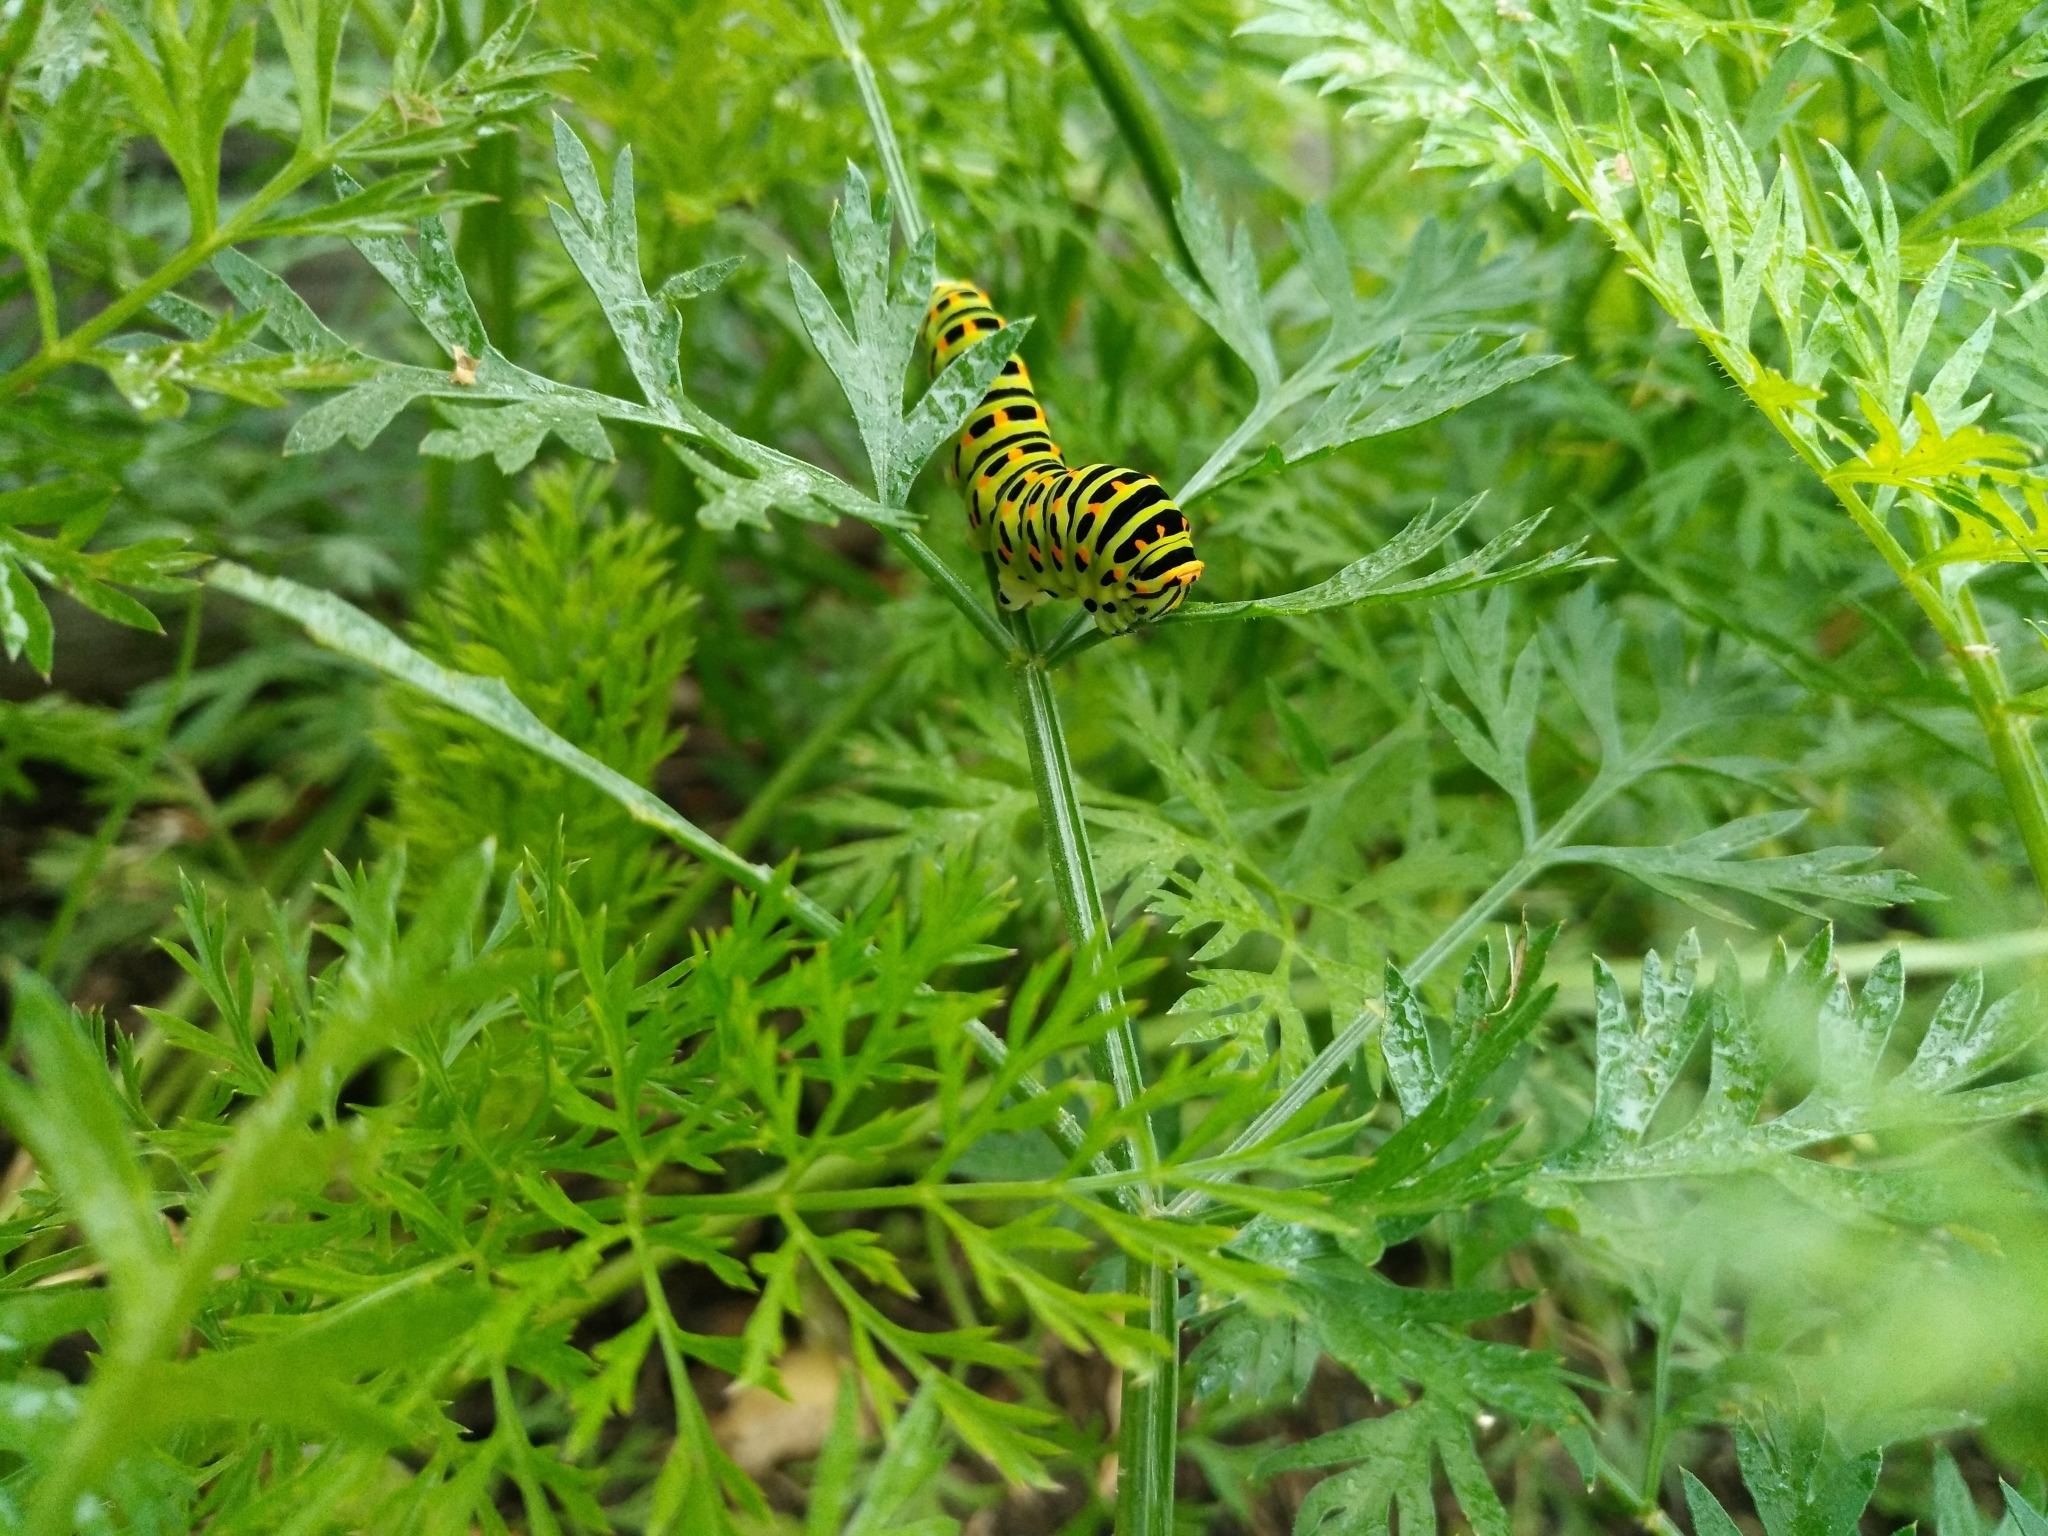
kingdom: Animalia
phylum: Arthropoda
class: Insecta
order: Lepidoptera
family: Papilionidae
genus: Papilio
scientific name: Papilio machaon
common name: Swallowtail
